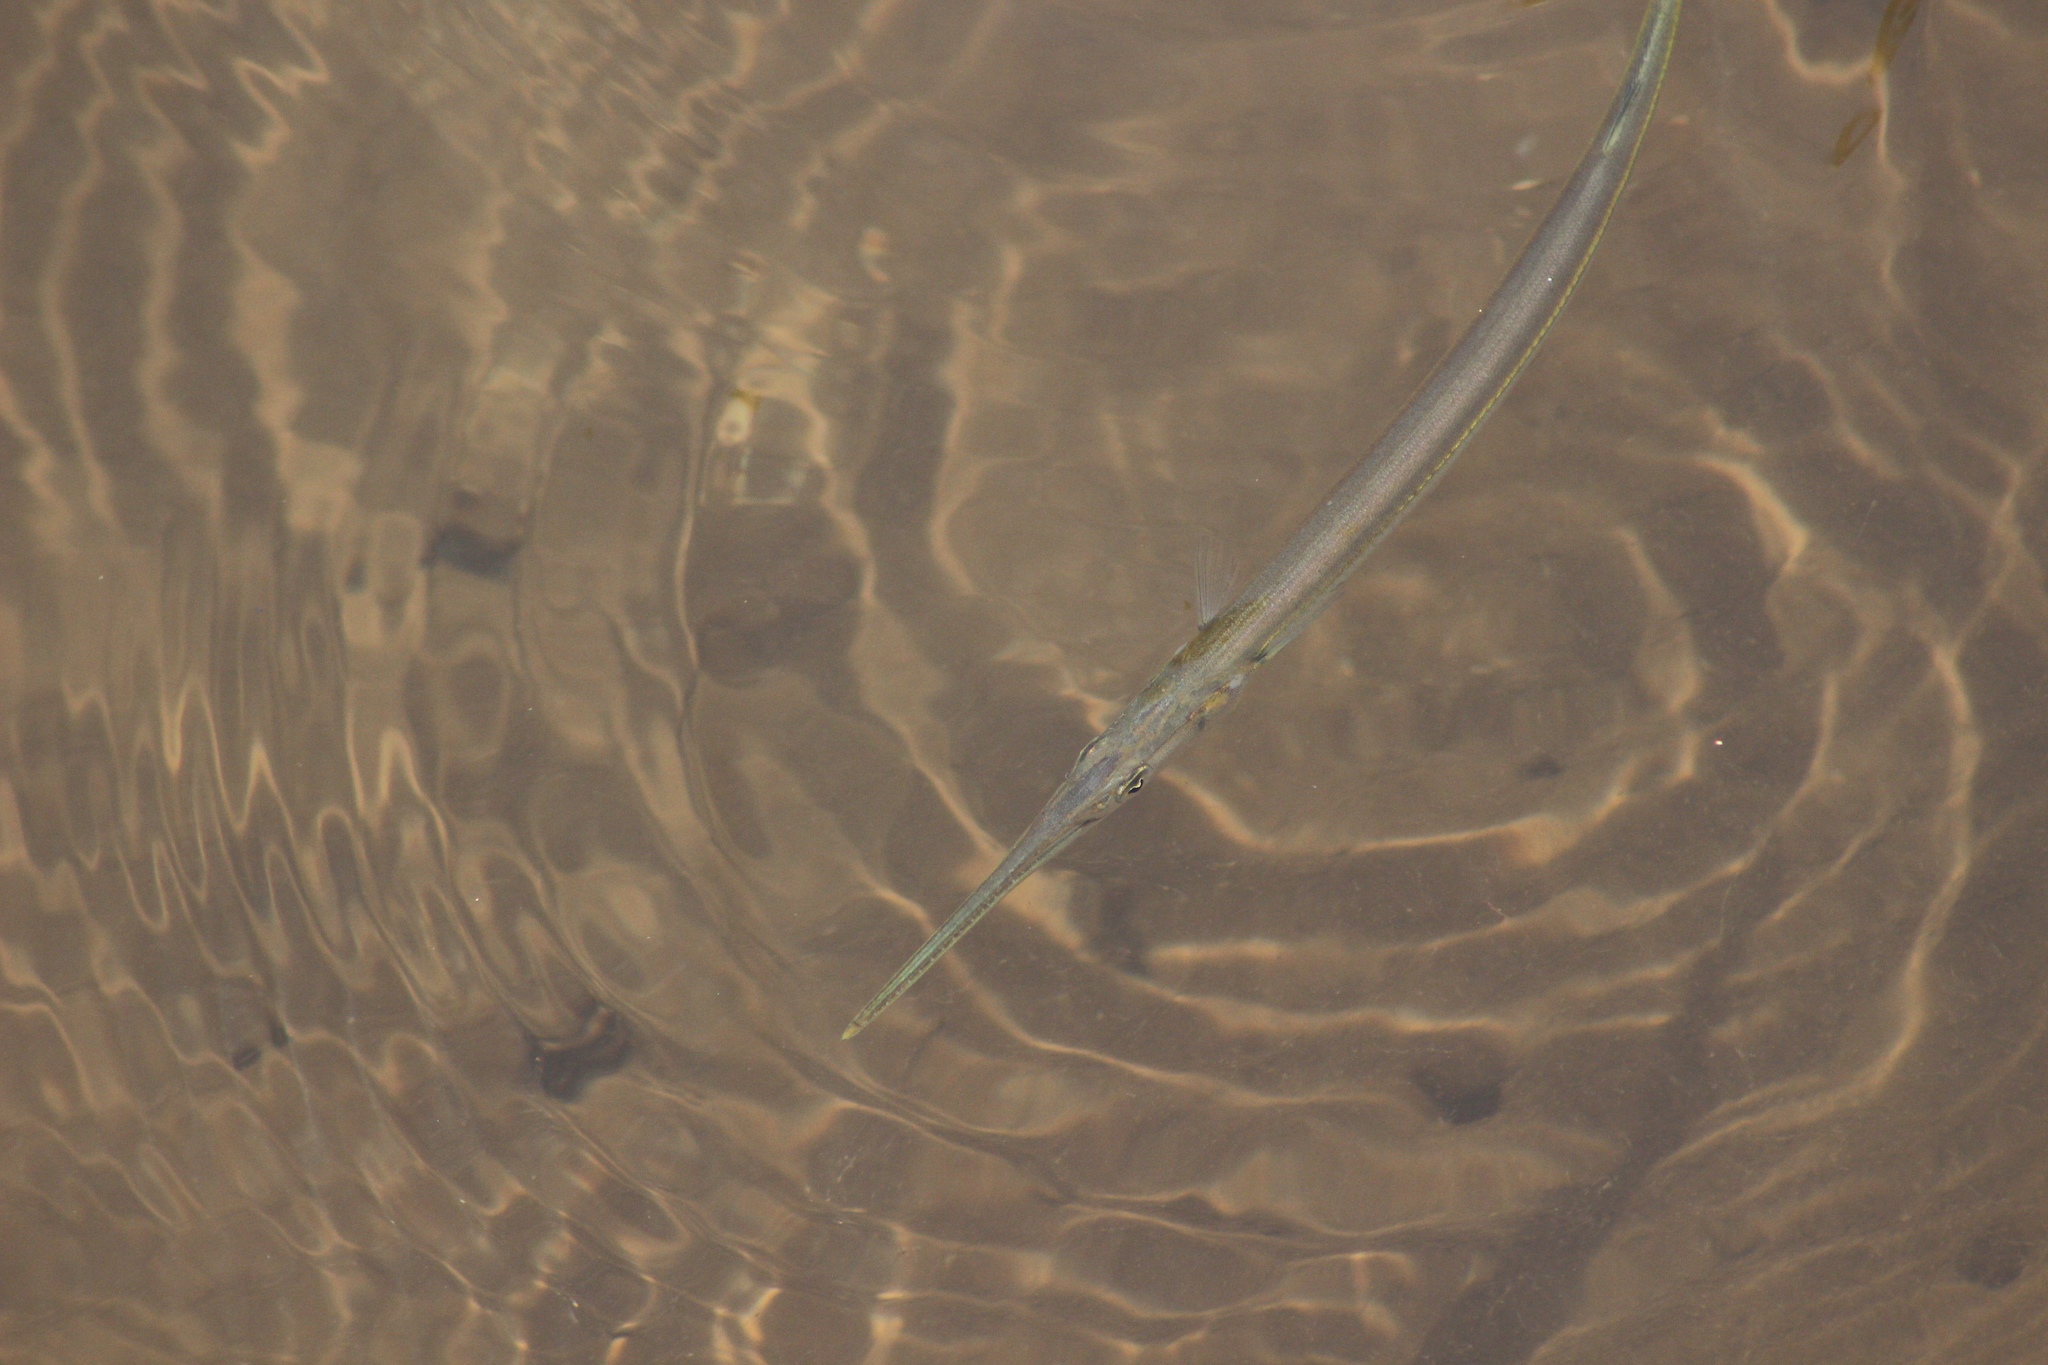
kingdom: Animalia
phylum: Chordata
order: Beloniformes
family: Belonidae
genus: Strongylura
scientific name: Strongylura marina
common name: Atlantic needlefish
